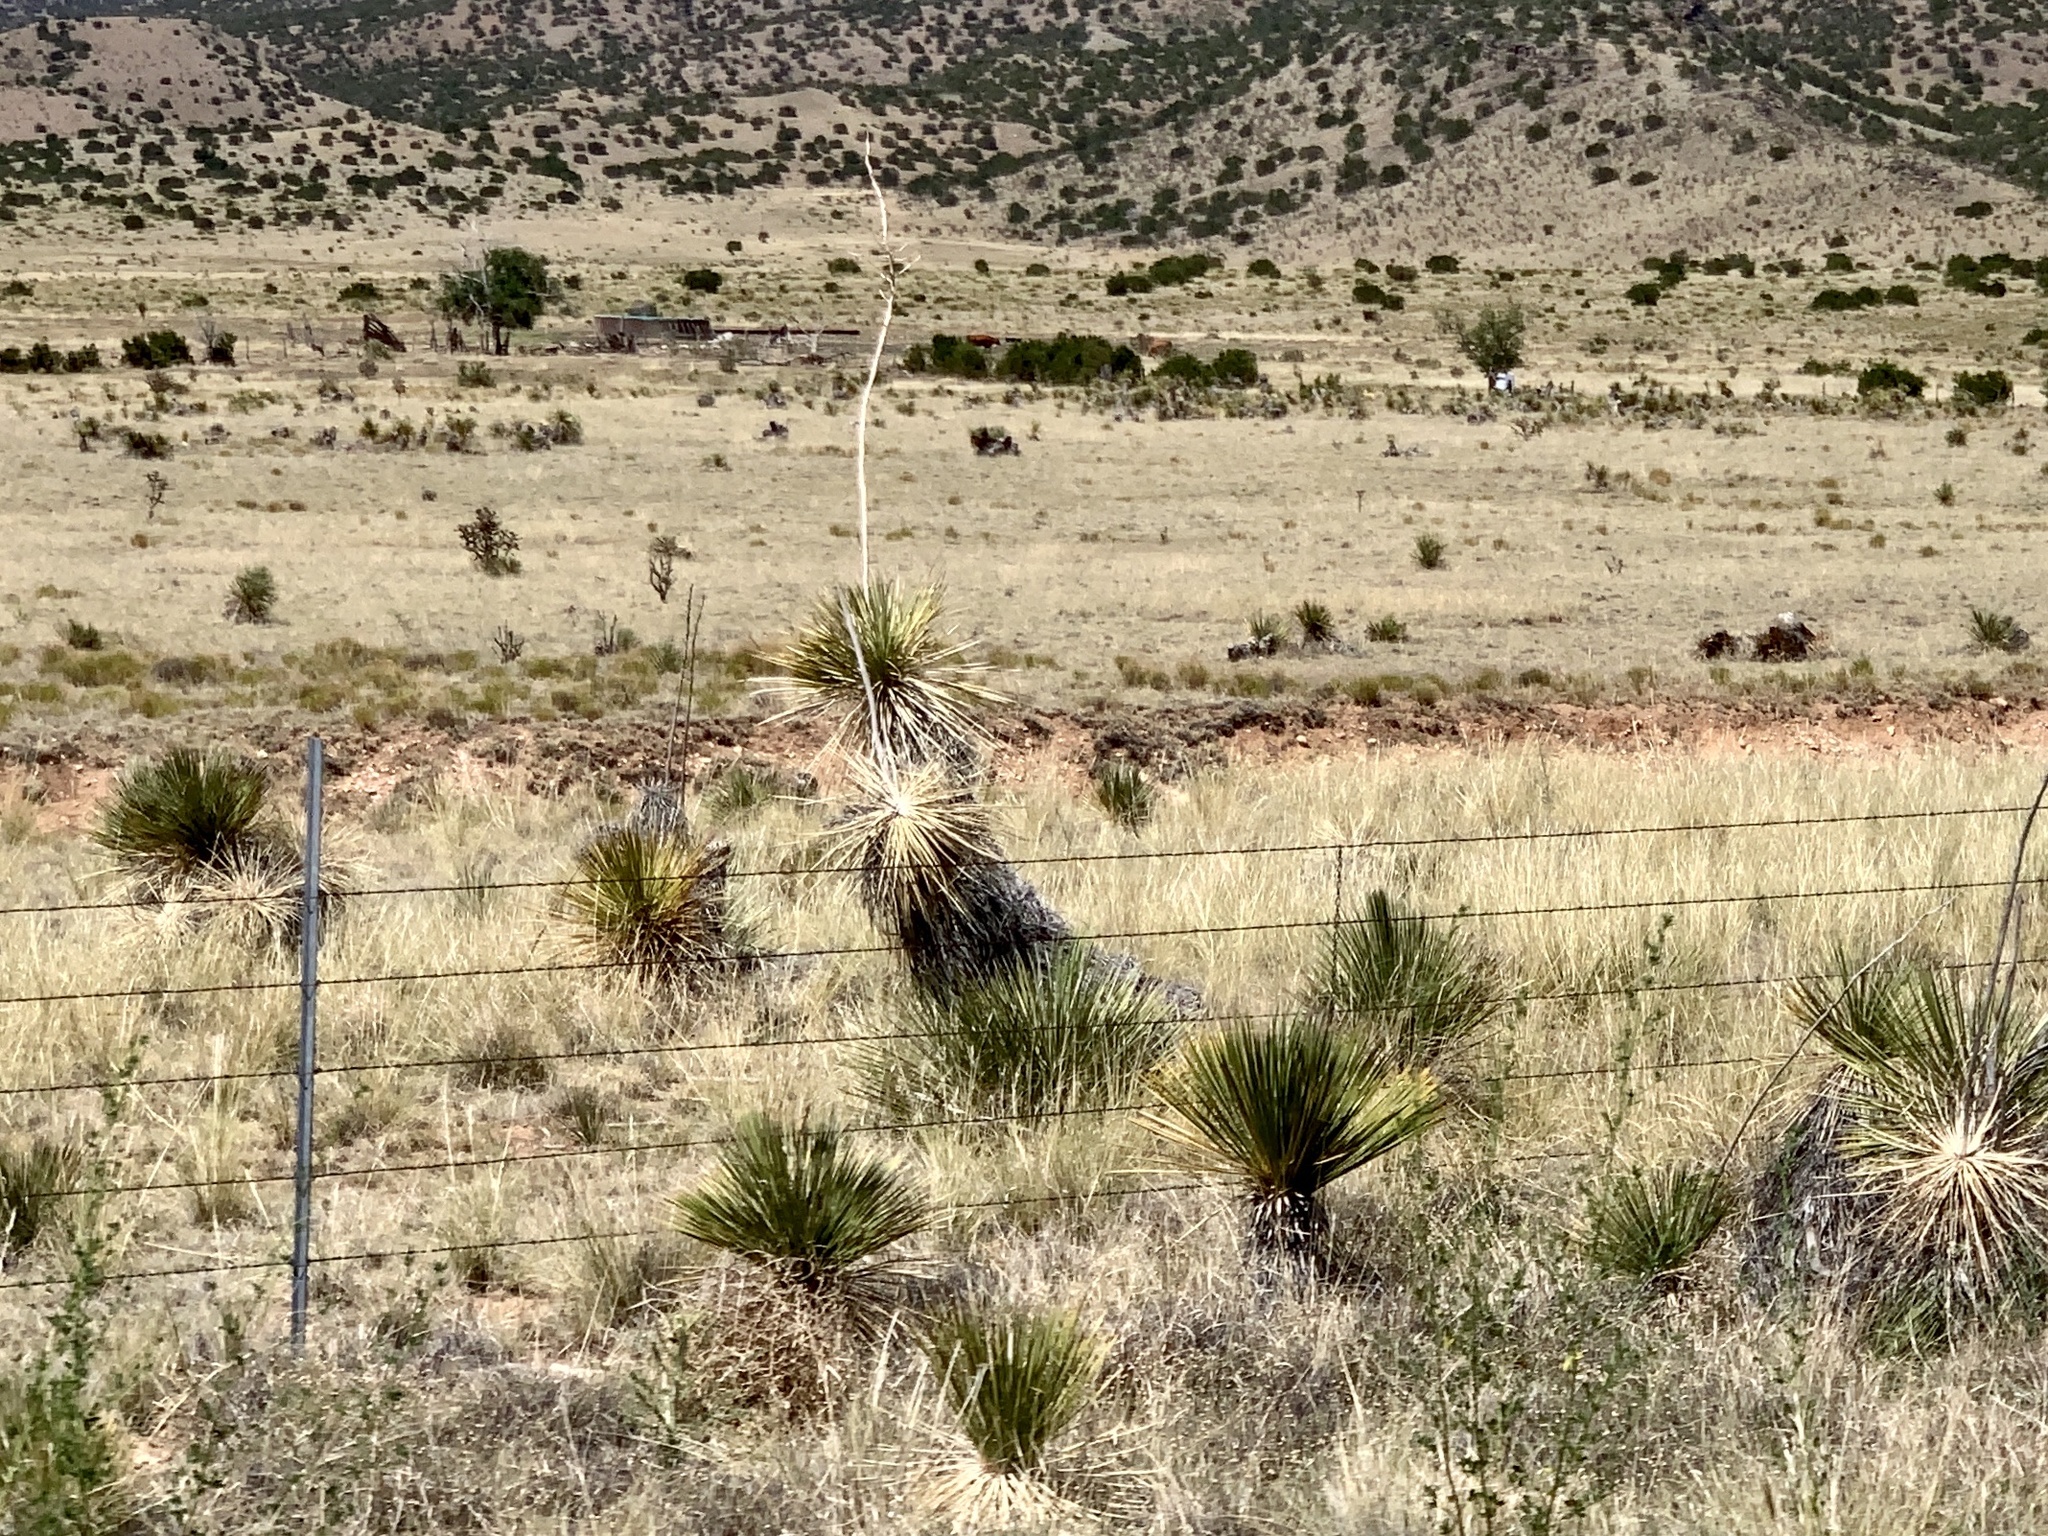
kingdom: Plantae
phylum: Tracheophyta
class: Liliopsida
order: Asparagales
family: Asparagaceae
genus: Yucca
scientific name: Yucca elata
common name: Palmella
